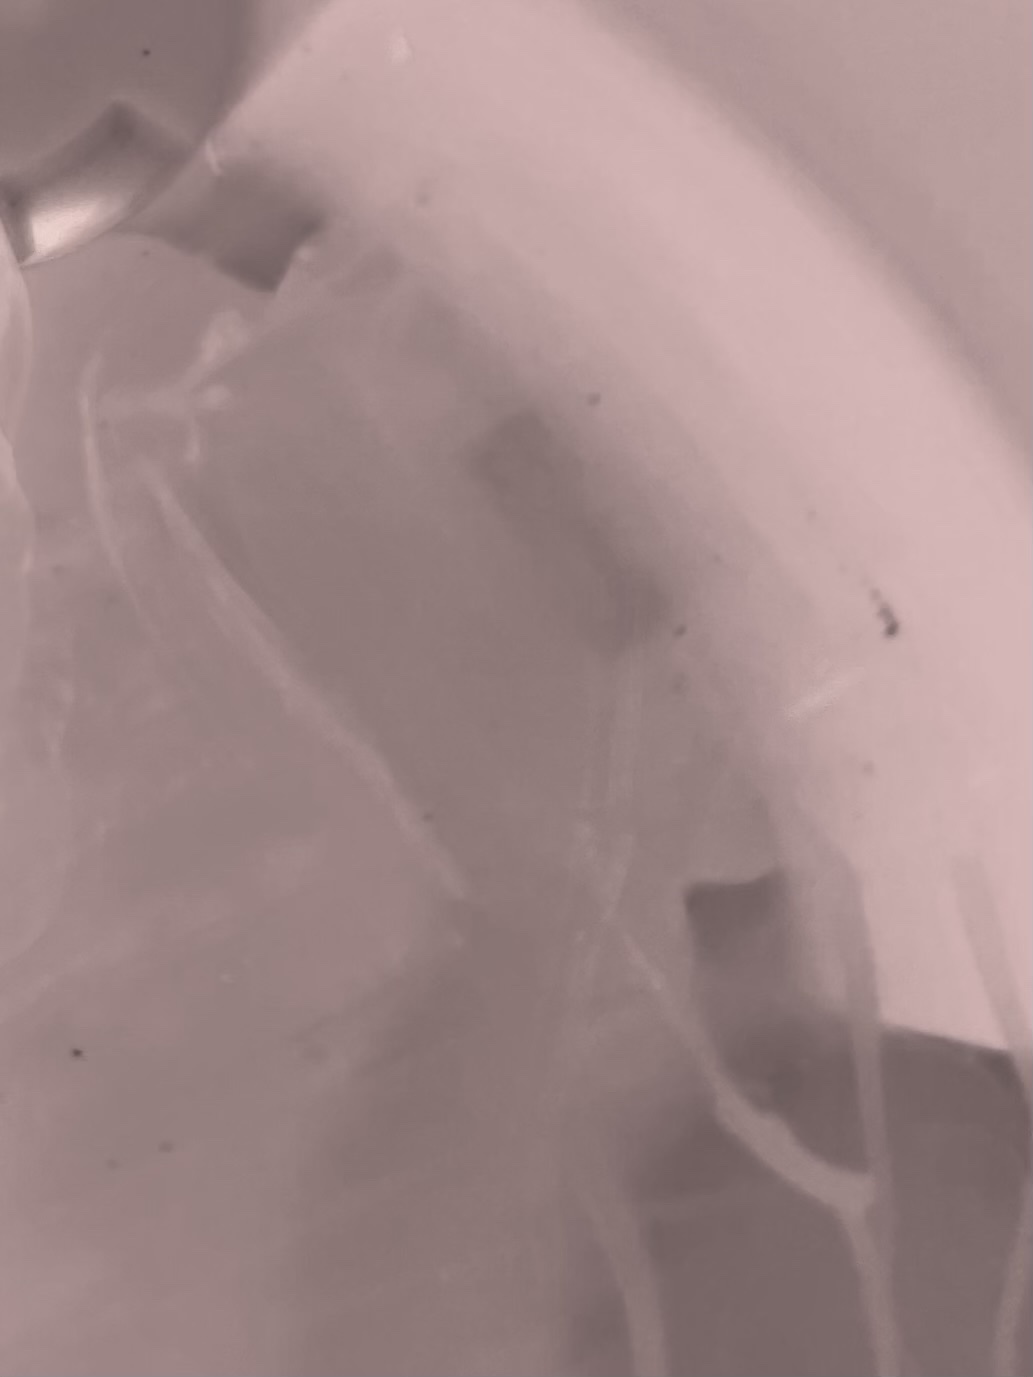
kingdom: Animalia
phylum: Cnidaria
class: Cubozoa
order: Carybdeida
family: Carybdeidae
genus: Carybdea
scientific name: Carybdea marsupialis
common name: Sea wasp
